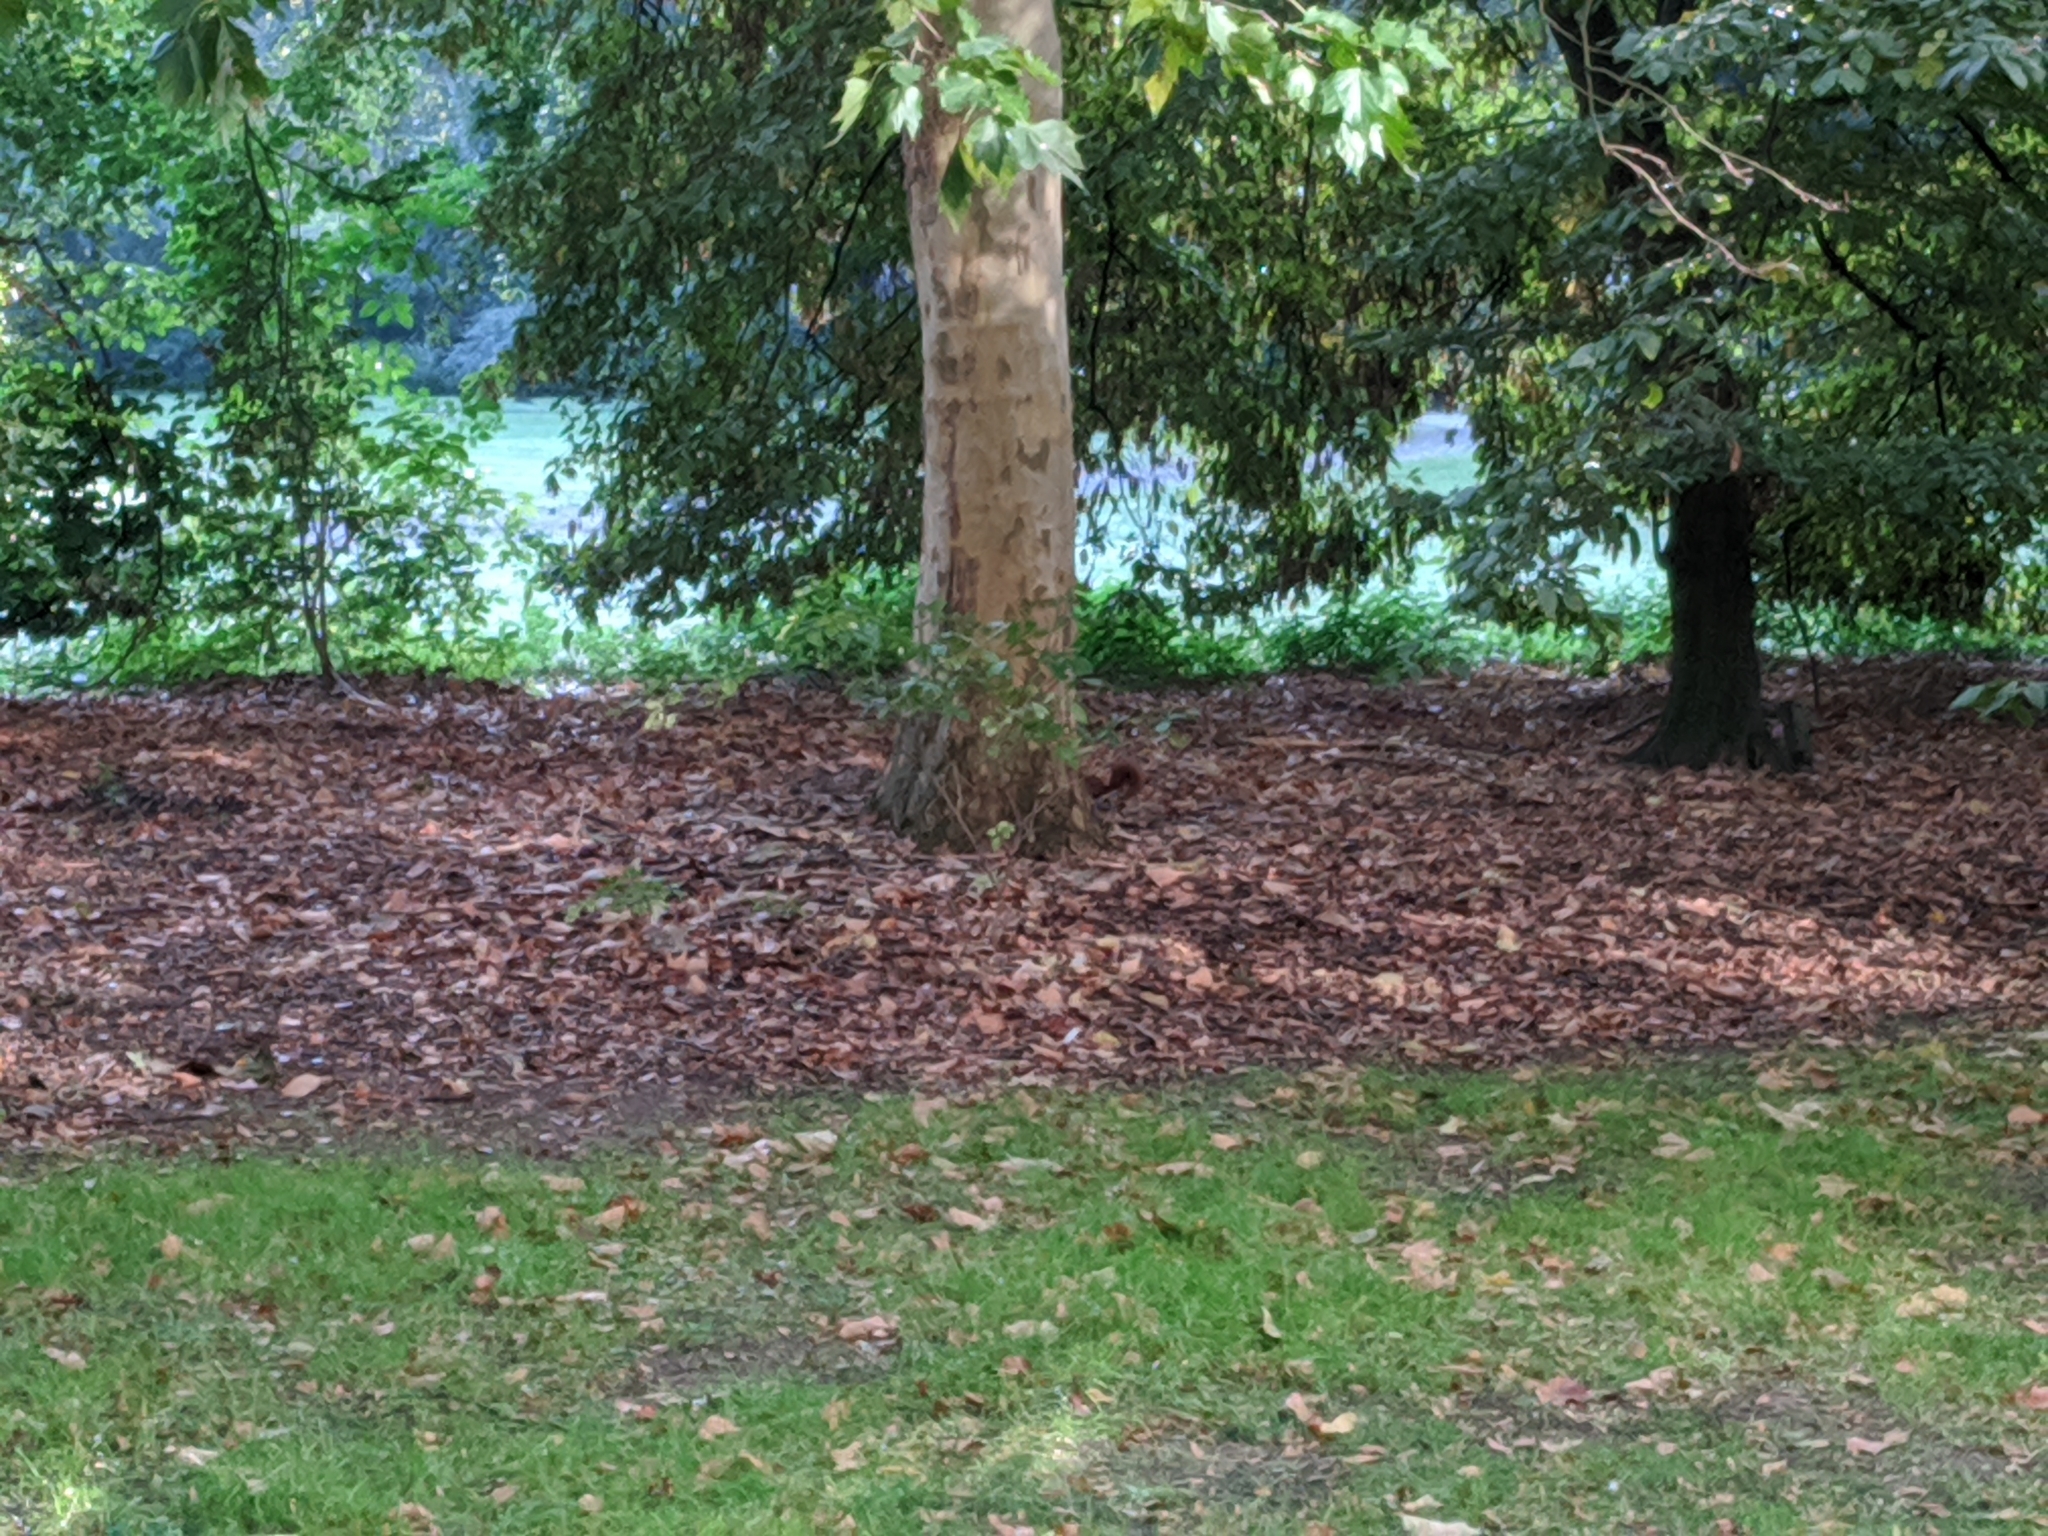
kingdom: Animalia
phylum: Chordata
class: Mammalia
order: Rodentia
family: Sciuridae
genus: Sciurus
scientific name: Sciurus vulgaris
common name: Eurasian red squirrel
